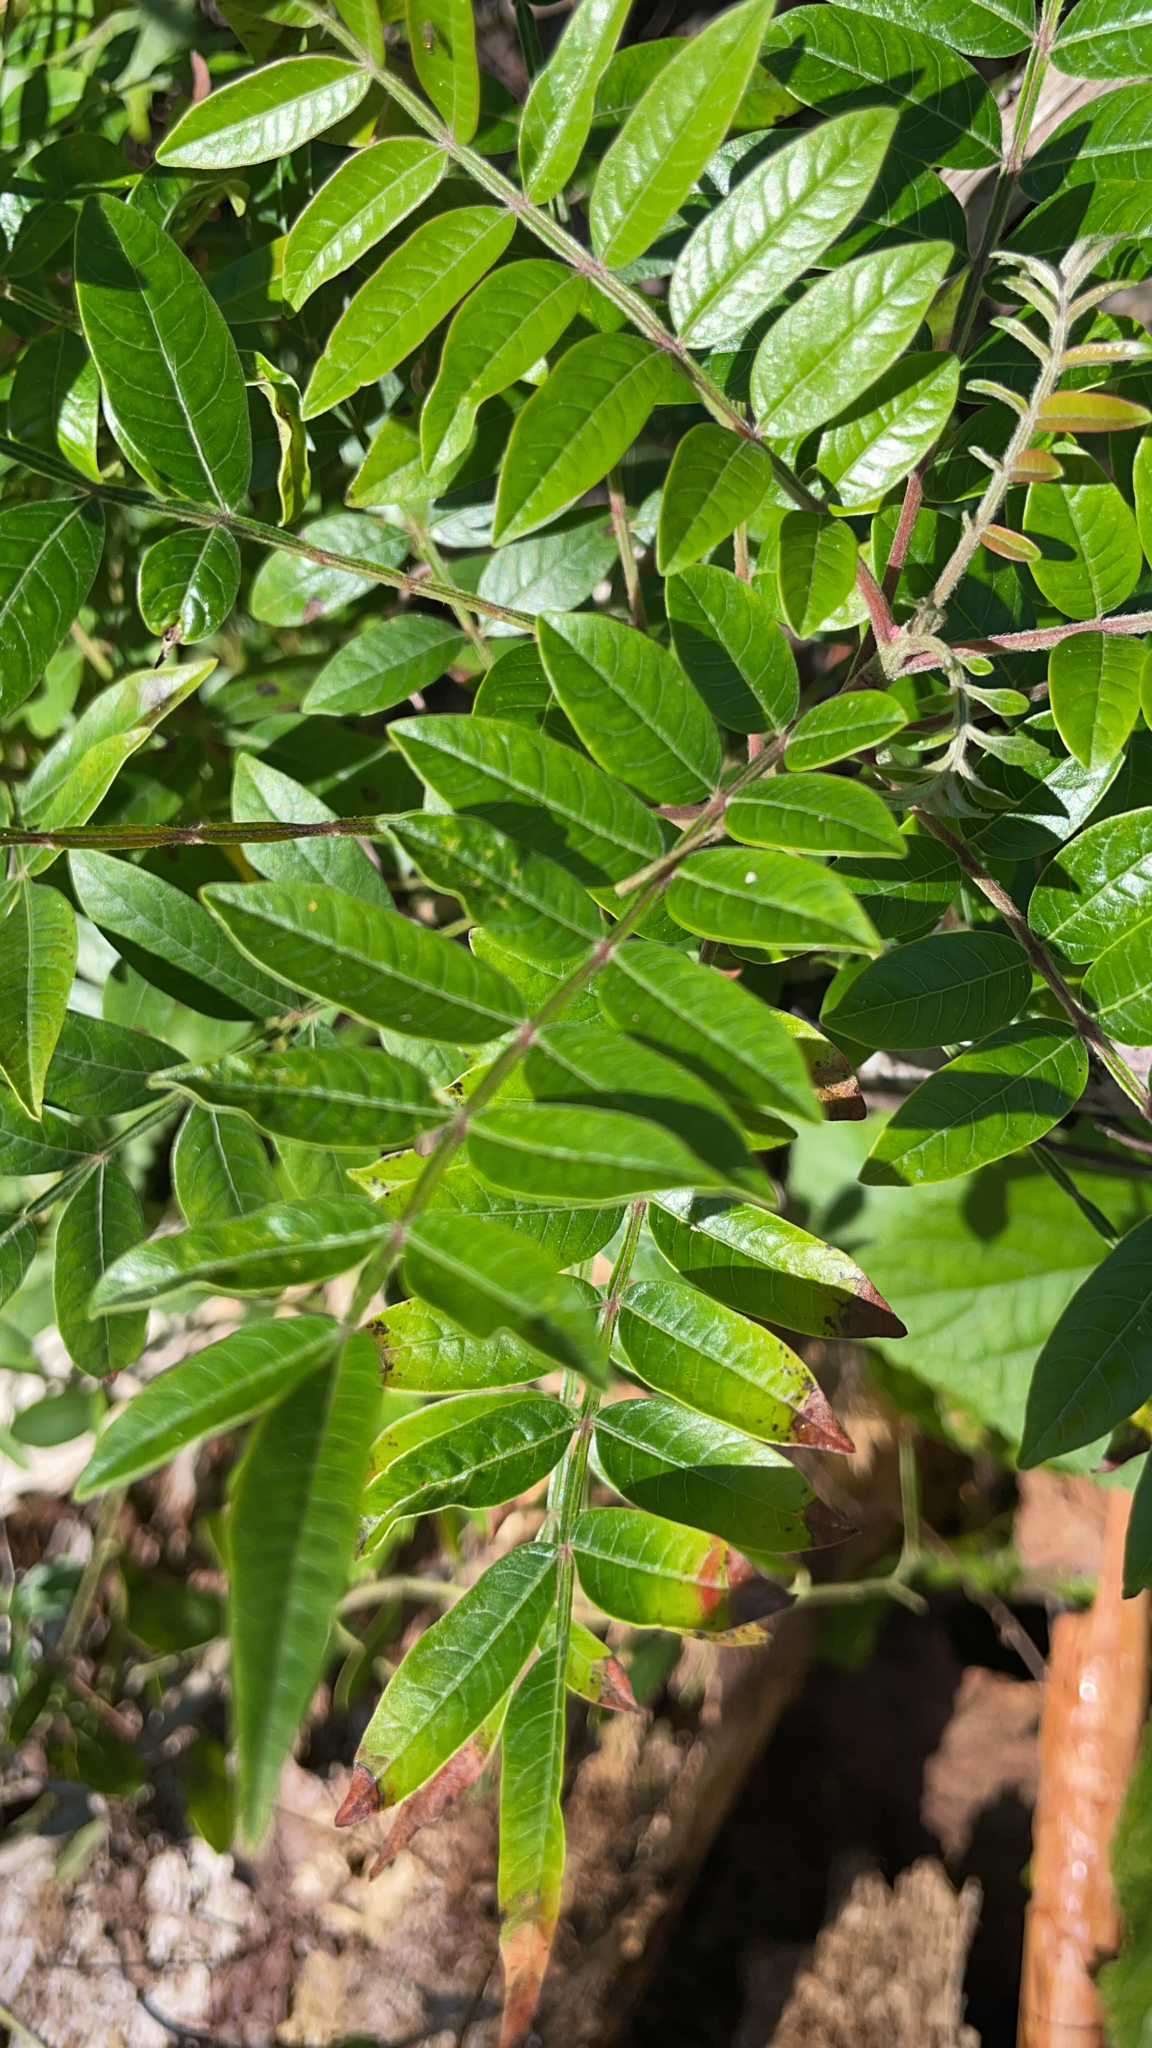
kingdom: Plantae
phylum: Tracheophyta
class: Magnoliopsida
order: Sapindales
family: Anacardiaceae
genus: Rhus
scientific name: Rhus copallina
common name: Shining sumac
